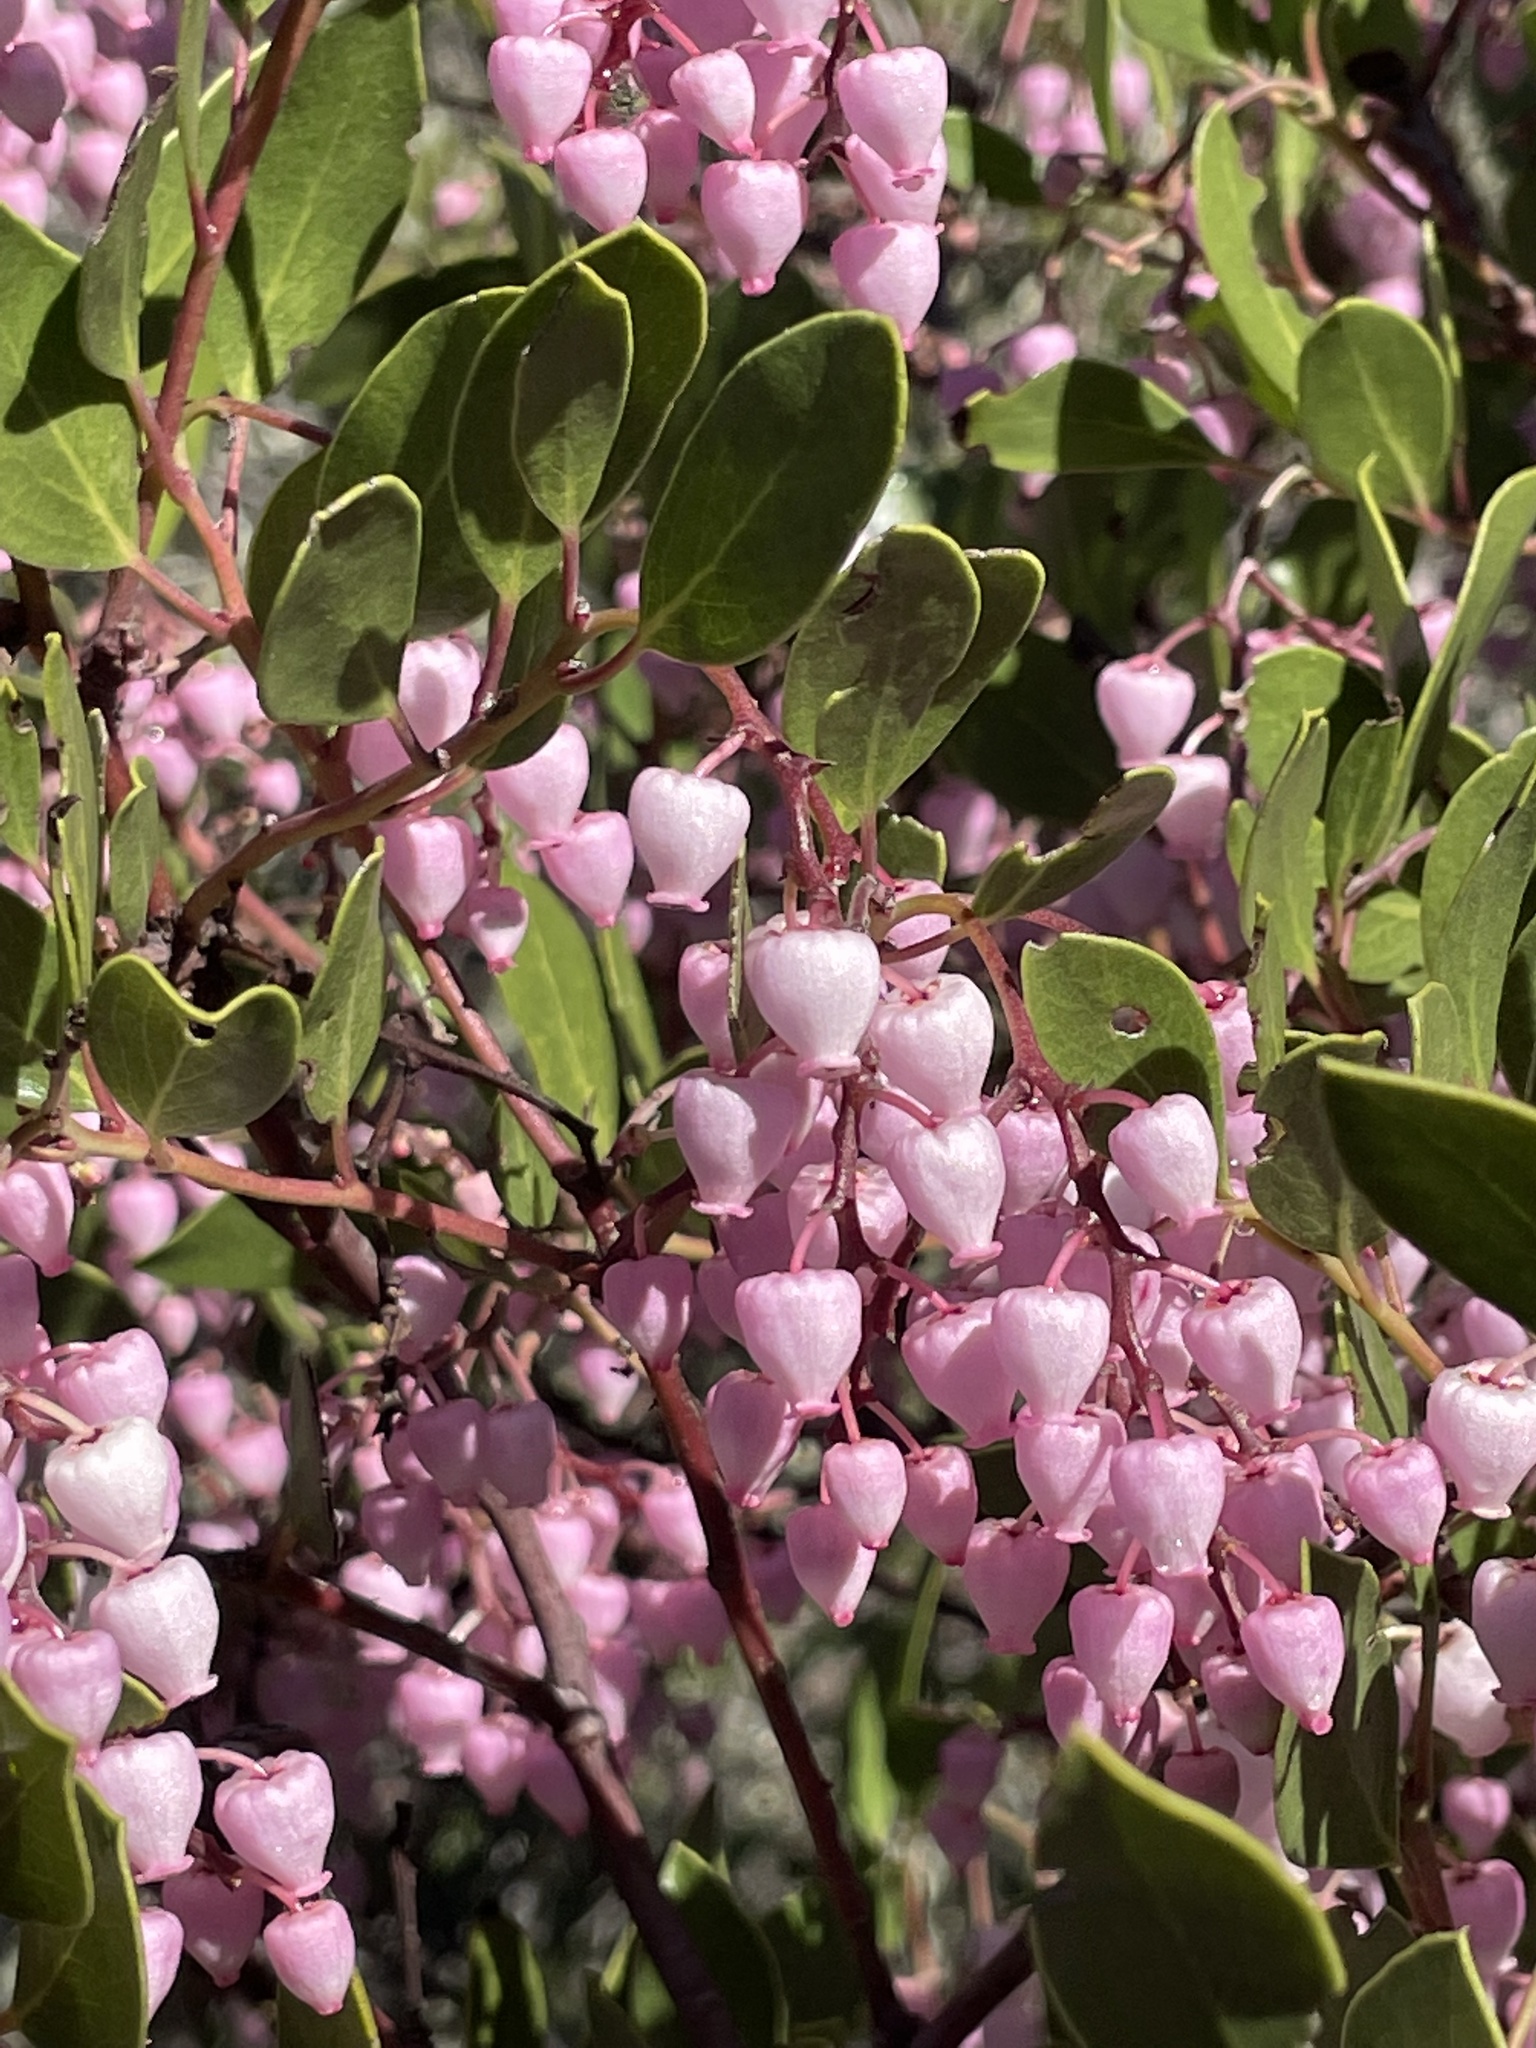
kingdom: Plantae
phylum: Tracheophyta
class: Magnoliopsida
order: Ericales
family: Ericaceae
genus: Arctostaphylos
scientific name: Arctostaphylos stanfordiana
